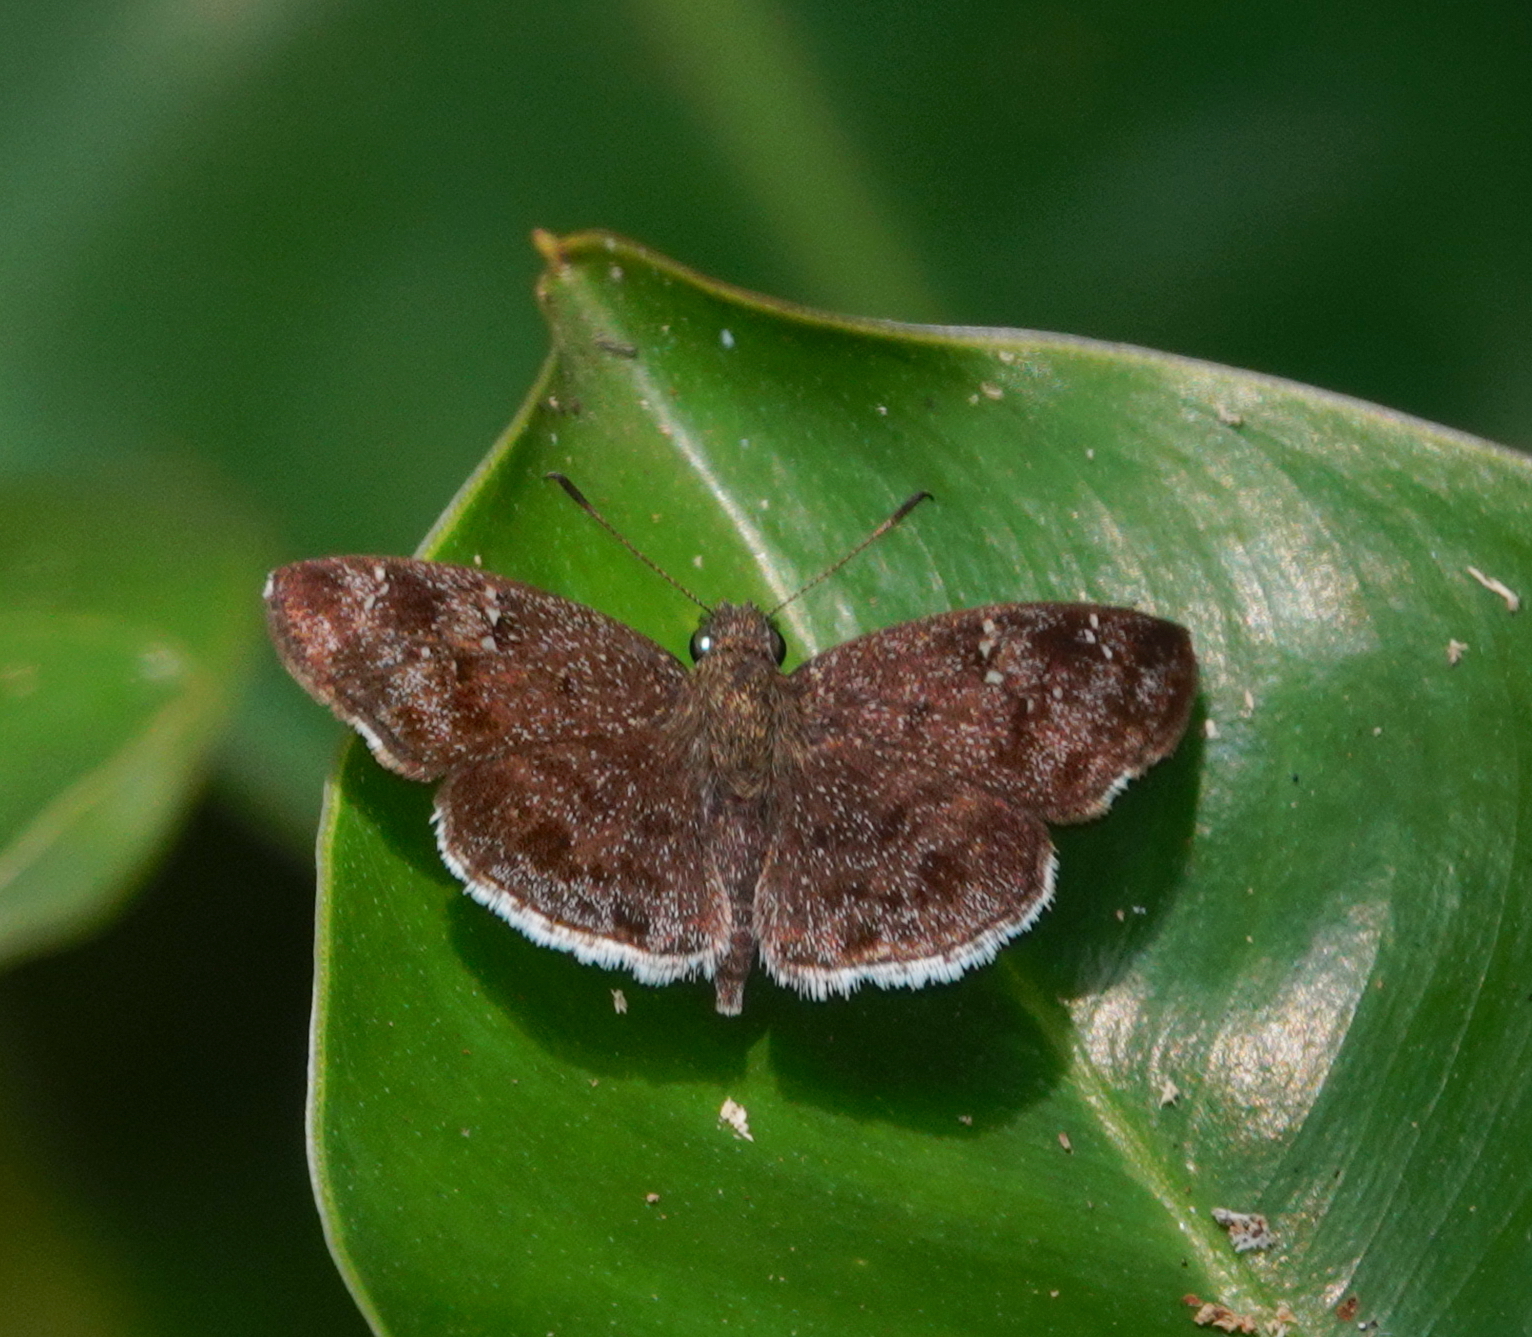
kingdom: Animalia
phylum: Arthropoda
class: Insecta
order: Lepidoptera
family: Hesperiidae
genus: Sarangesa
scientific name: Sarangesa dasahara
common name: Common small flat
